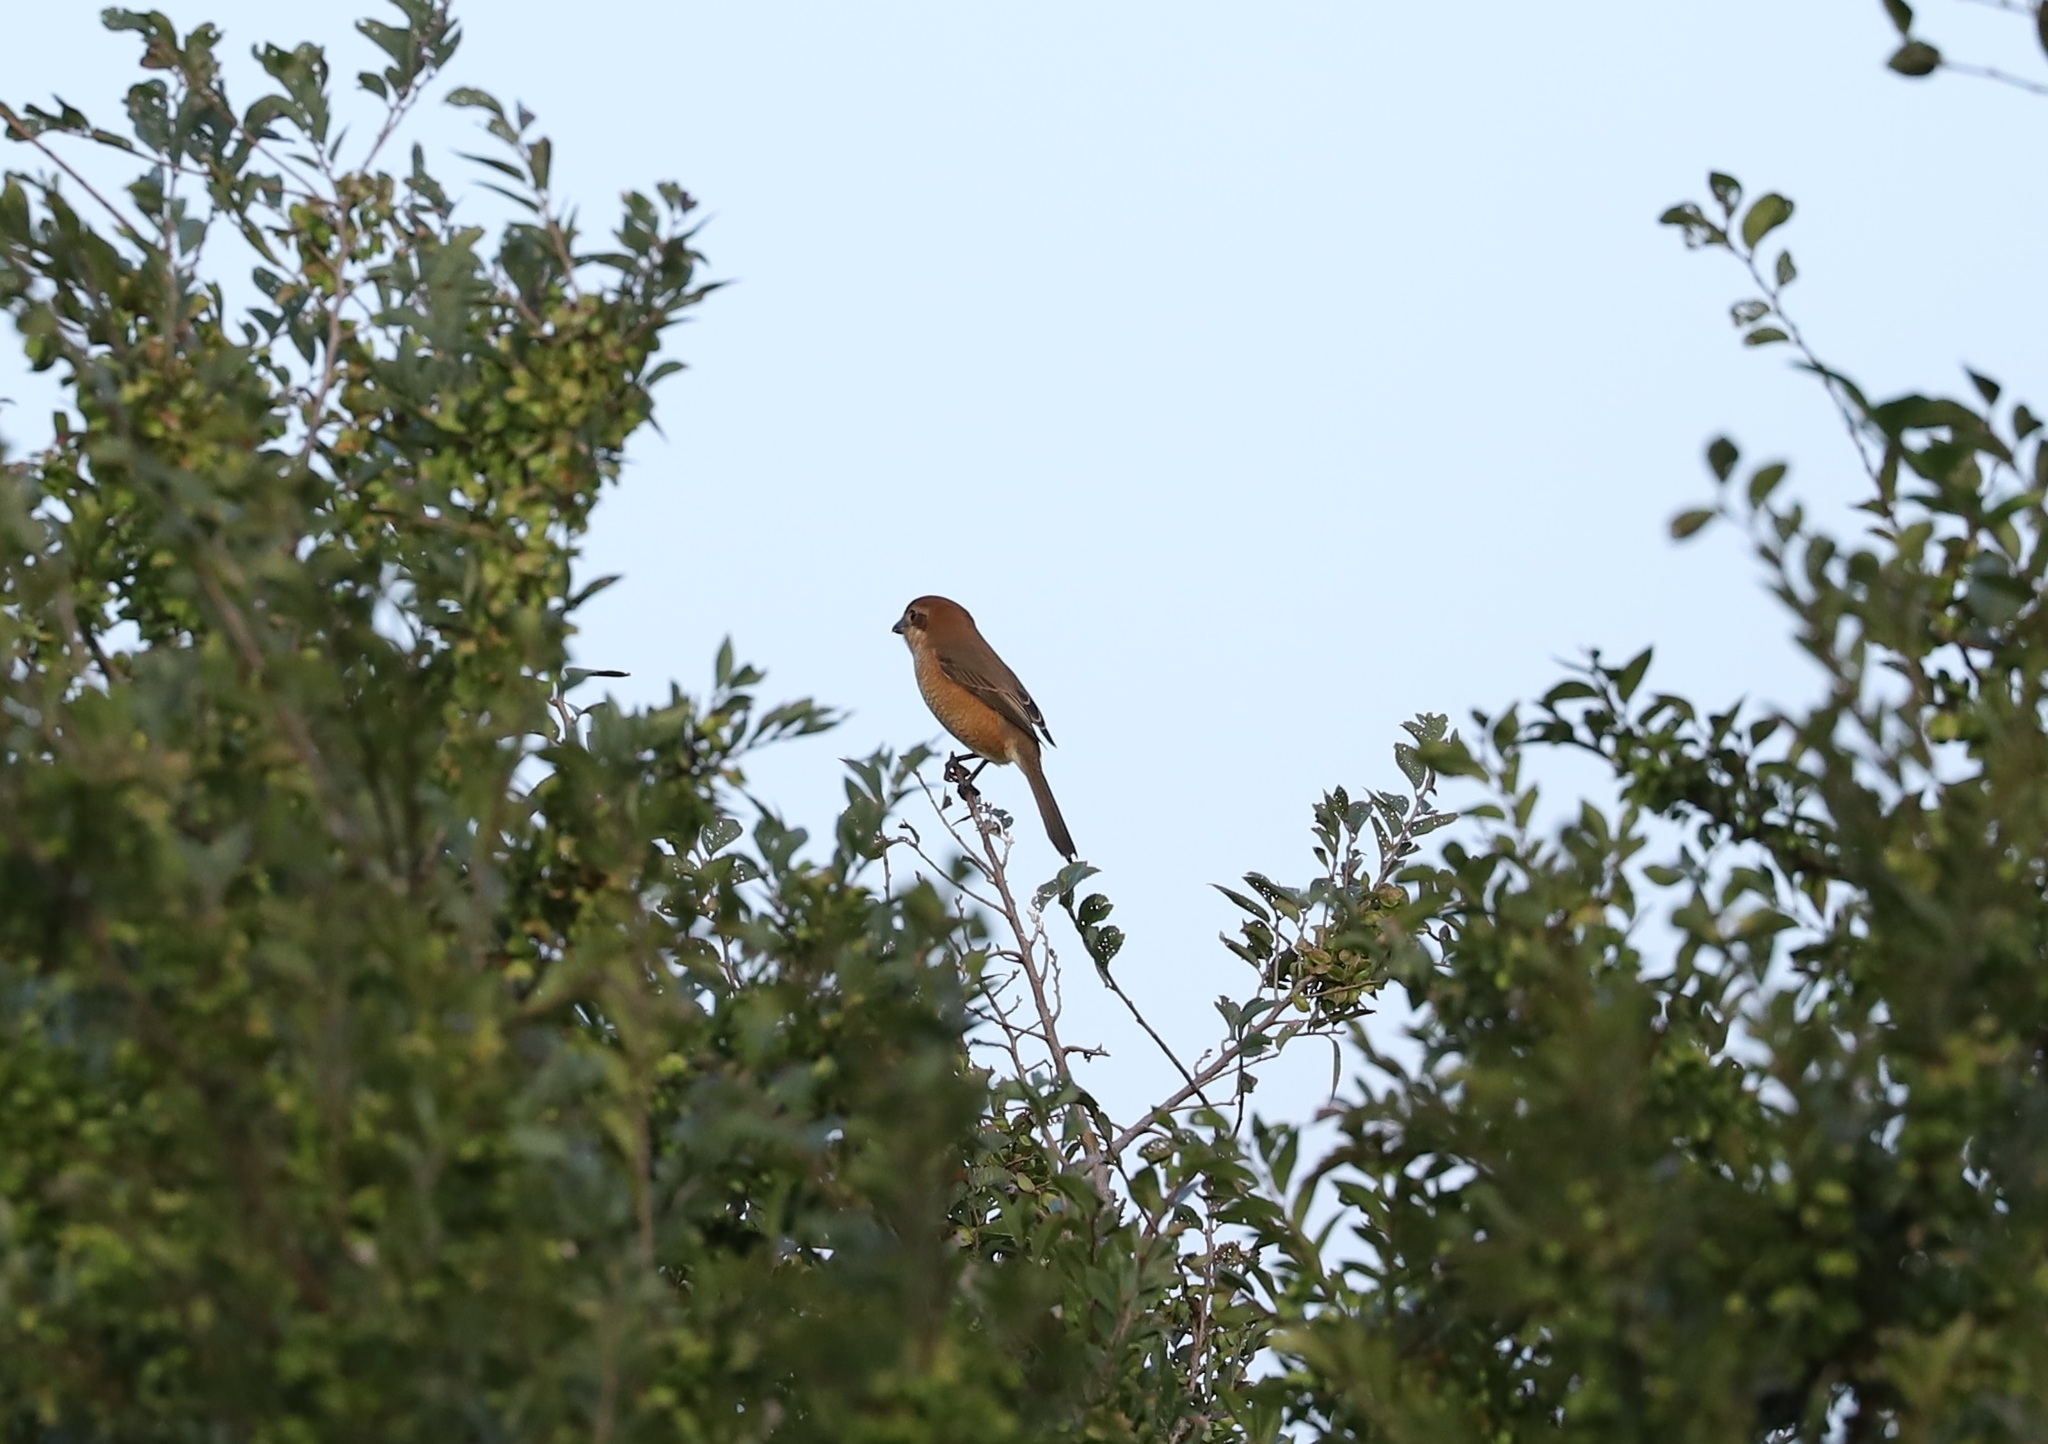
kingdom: Animalia
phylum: Chordata
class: Aves
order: Passeriformes
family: Laniidae
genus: Lanius
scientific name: Lanius bucephalus
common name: Bull-headed shrike
